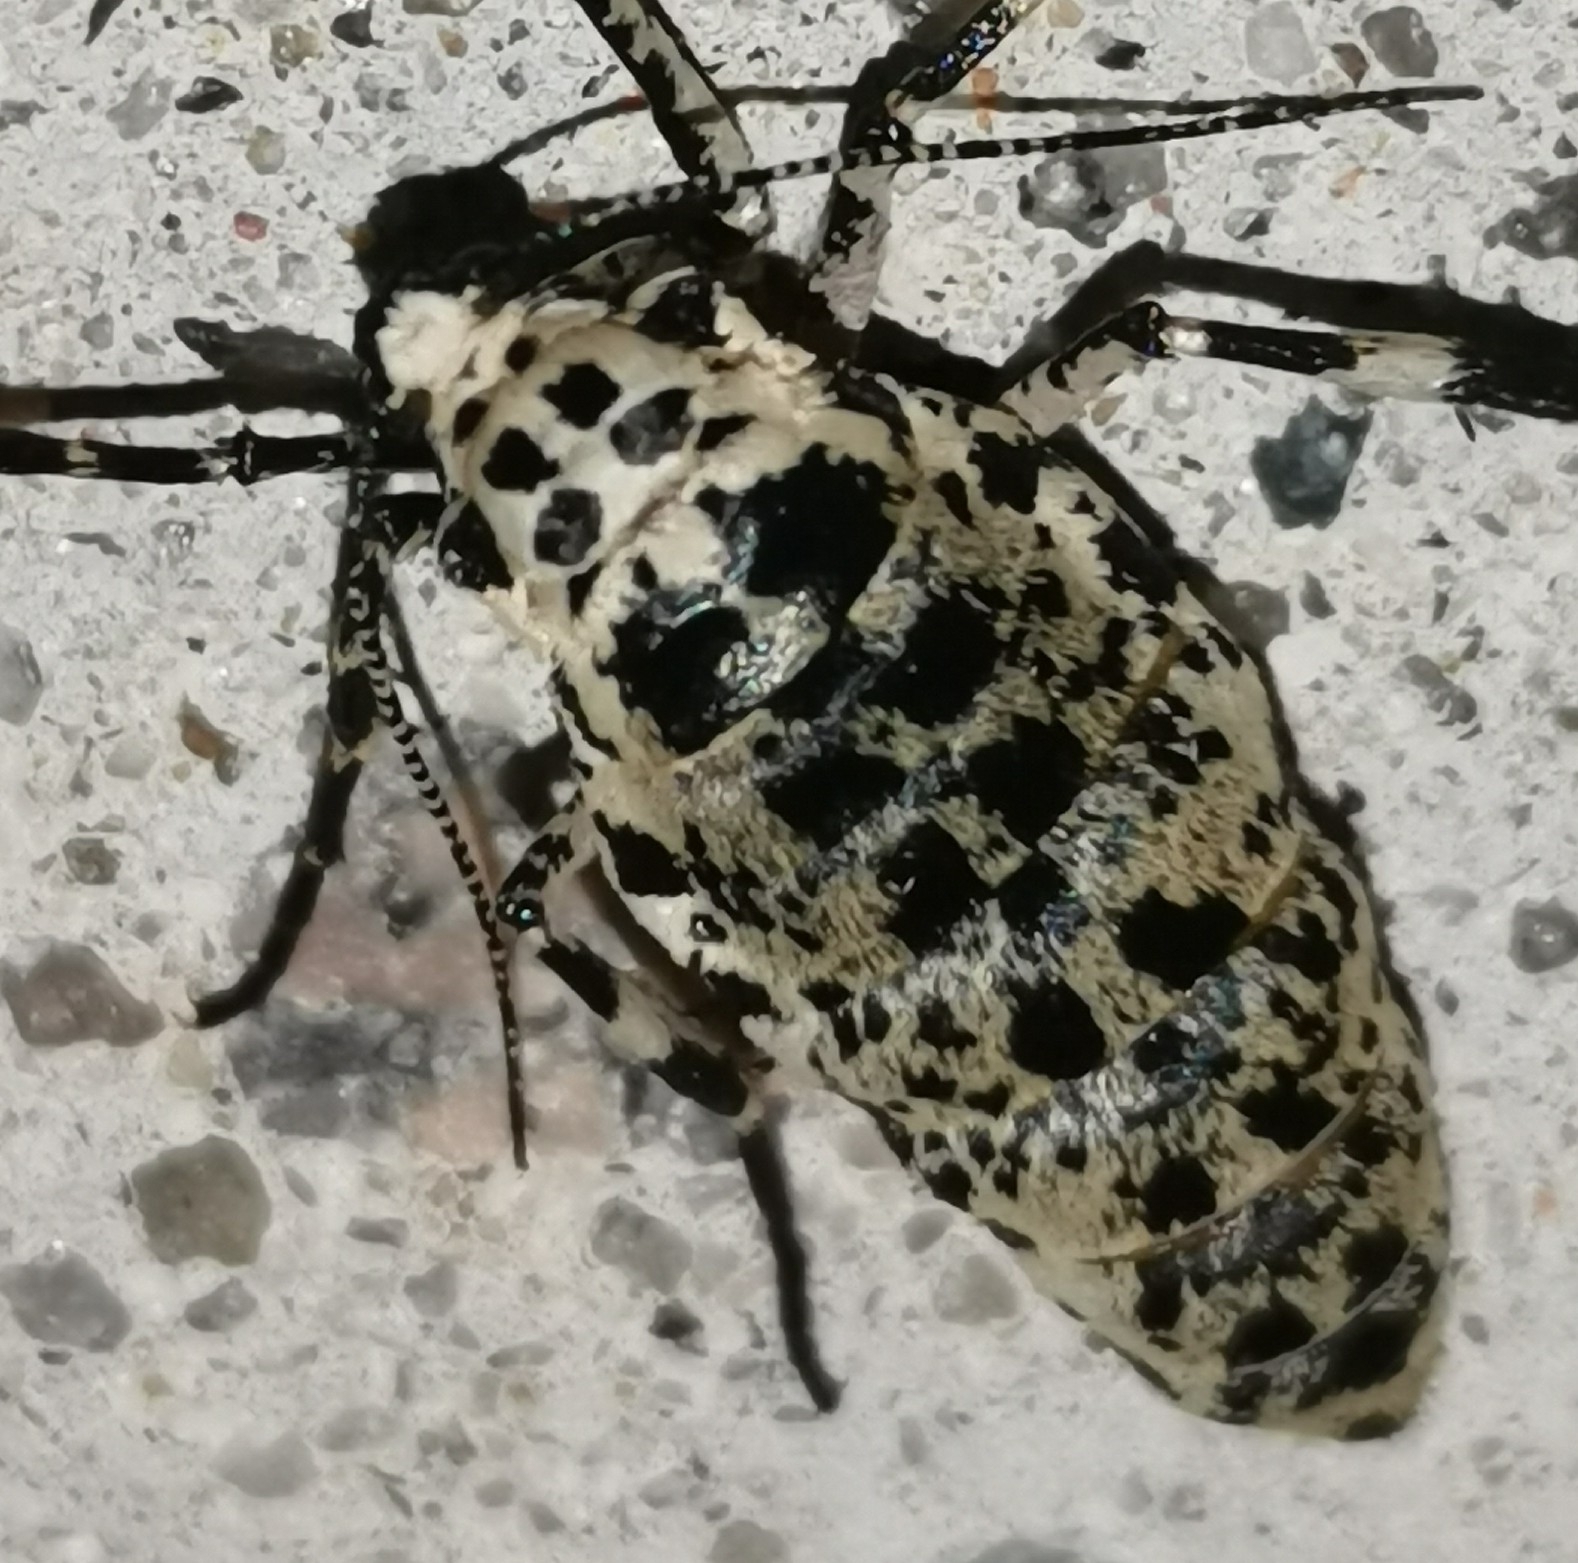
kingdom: Animalia
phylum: Arthropoda
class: Insecta
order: Lepidoptera
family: Geometridae
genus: Erannis
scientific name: Erannis defoliaria
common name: Mottled umber
